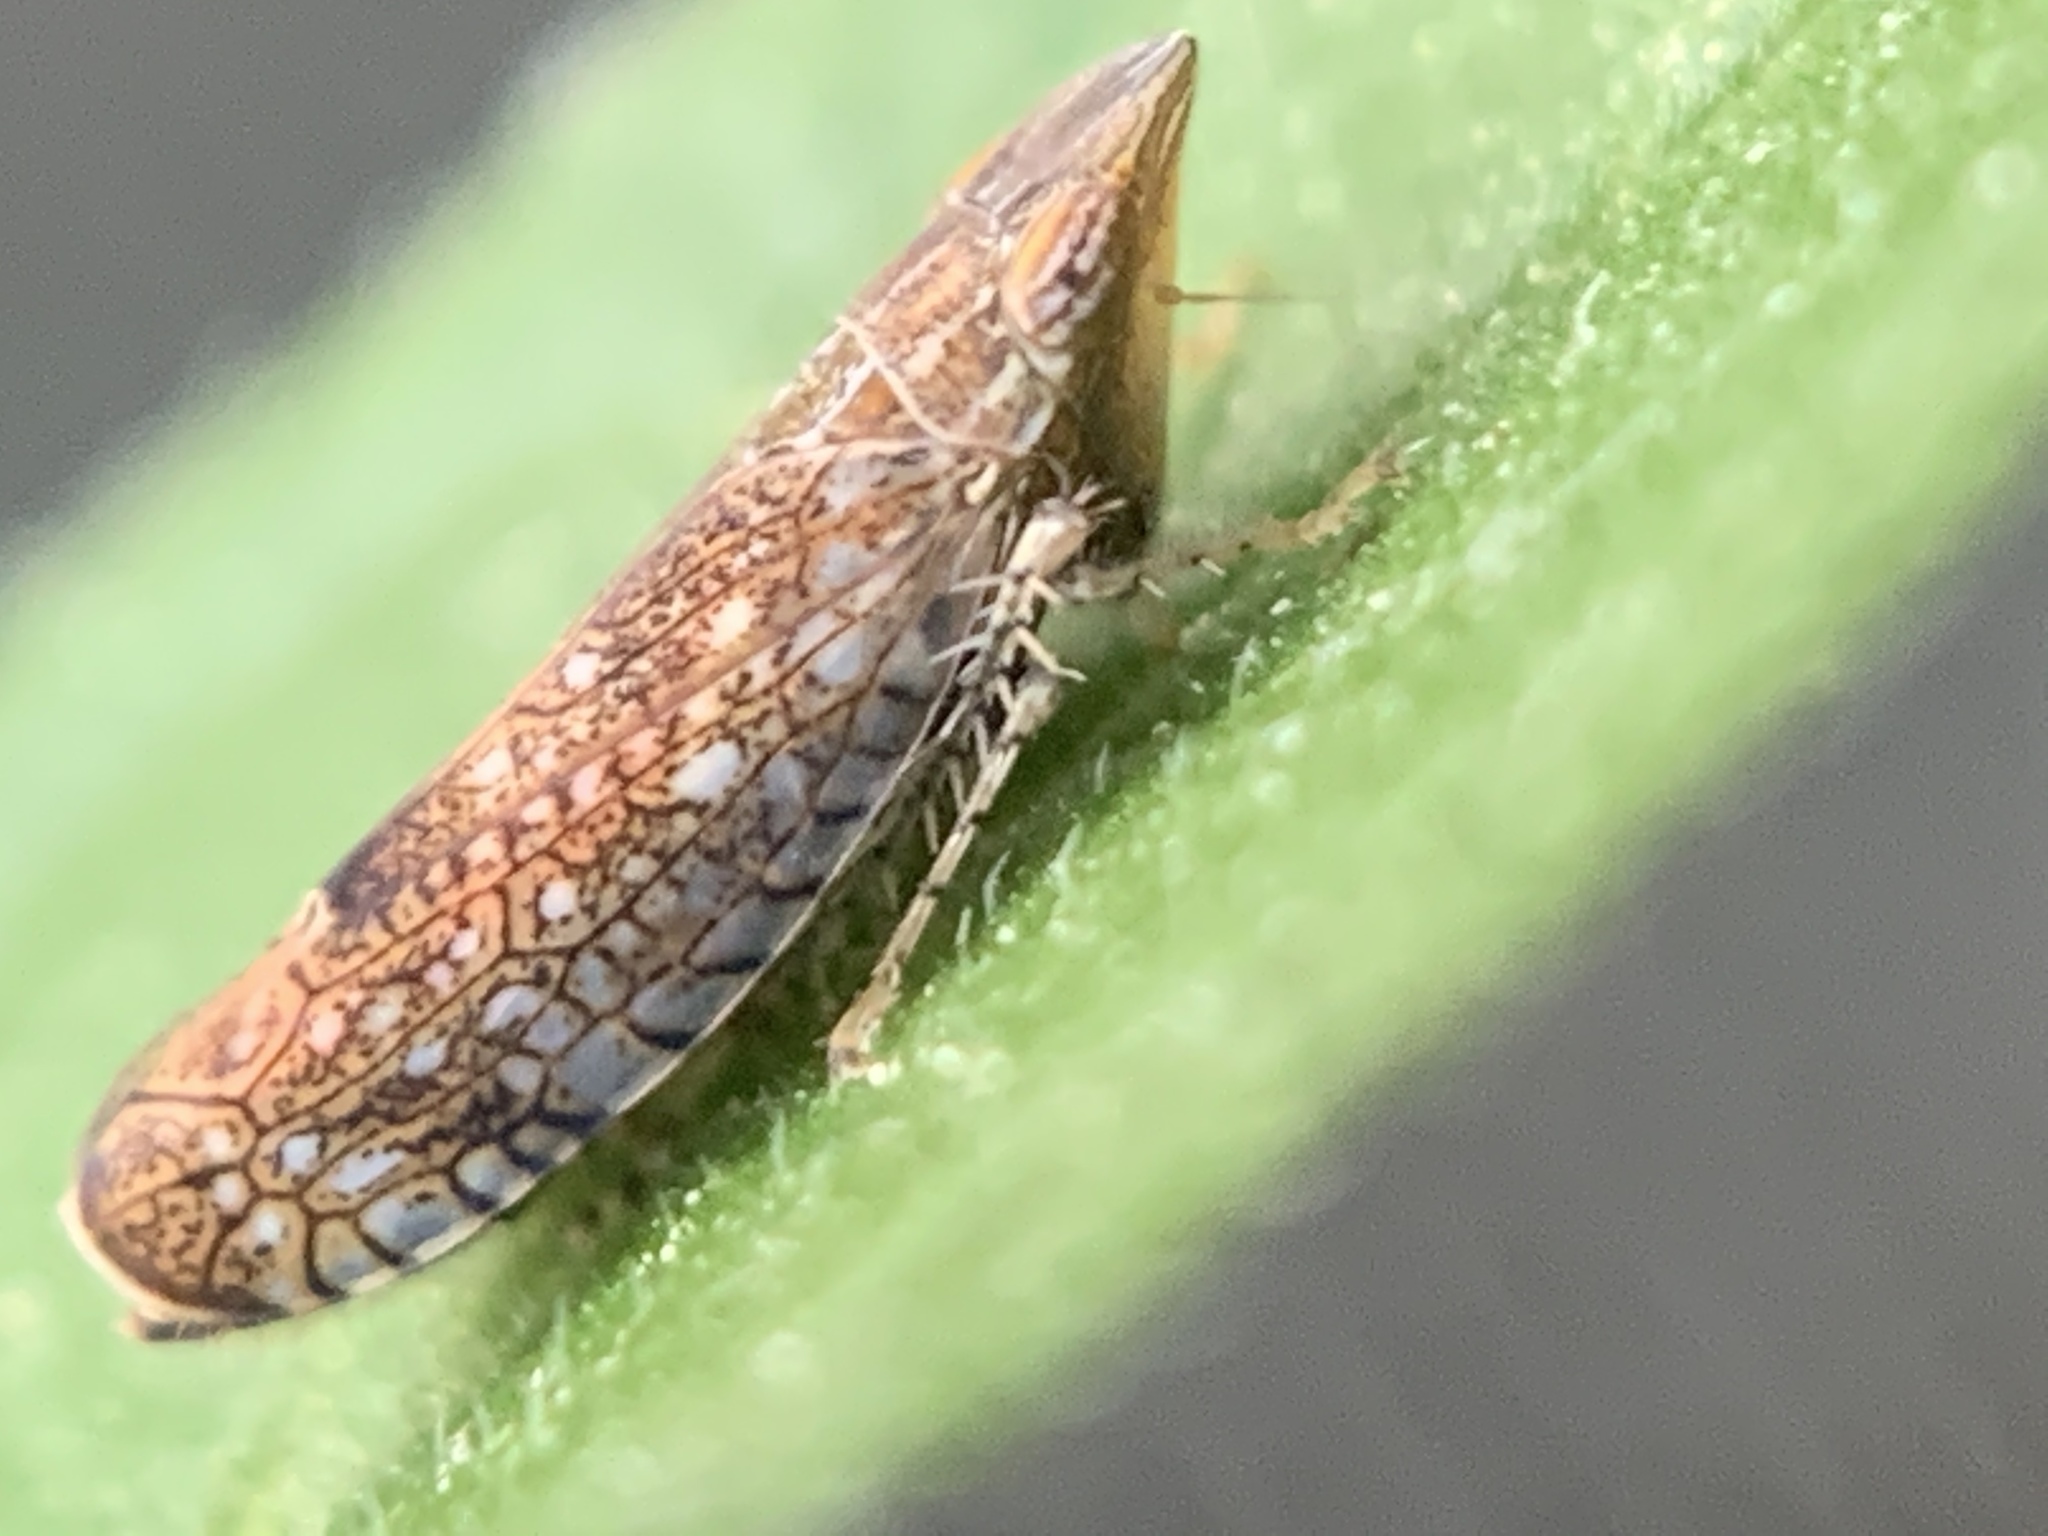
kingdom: Animalia
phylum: Arthropoda
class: Insecta
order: Hemiptera
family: Cicadellidae
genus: Scaphytopius
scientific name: Scaphytopius acutus
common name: The sharp-nosed leafhopper
